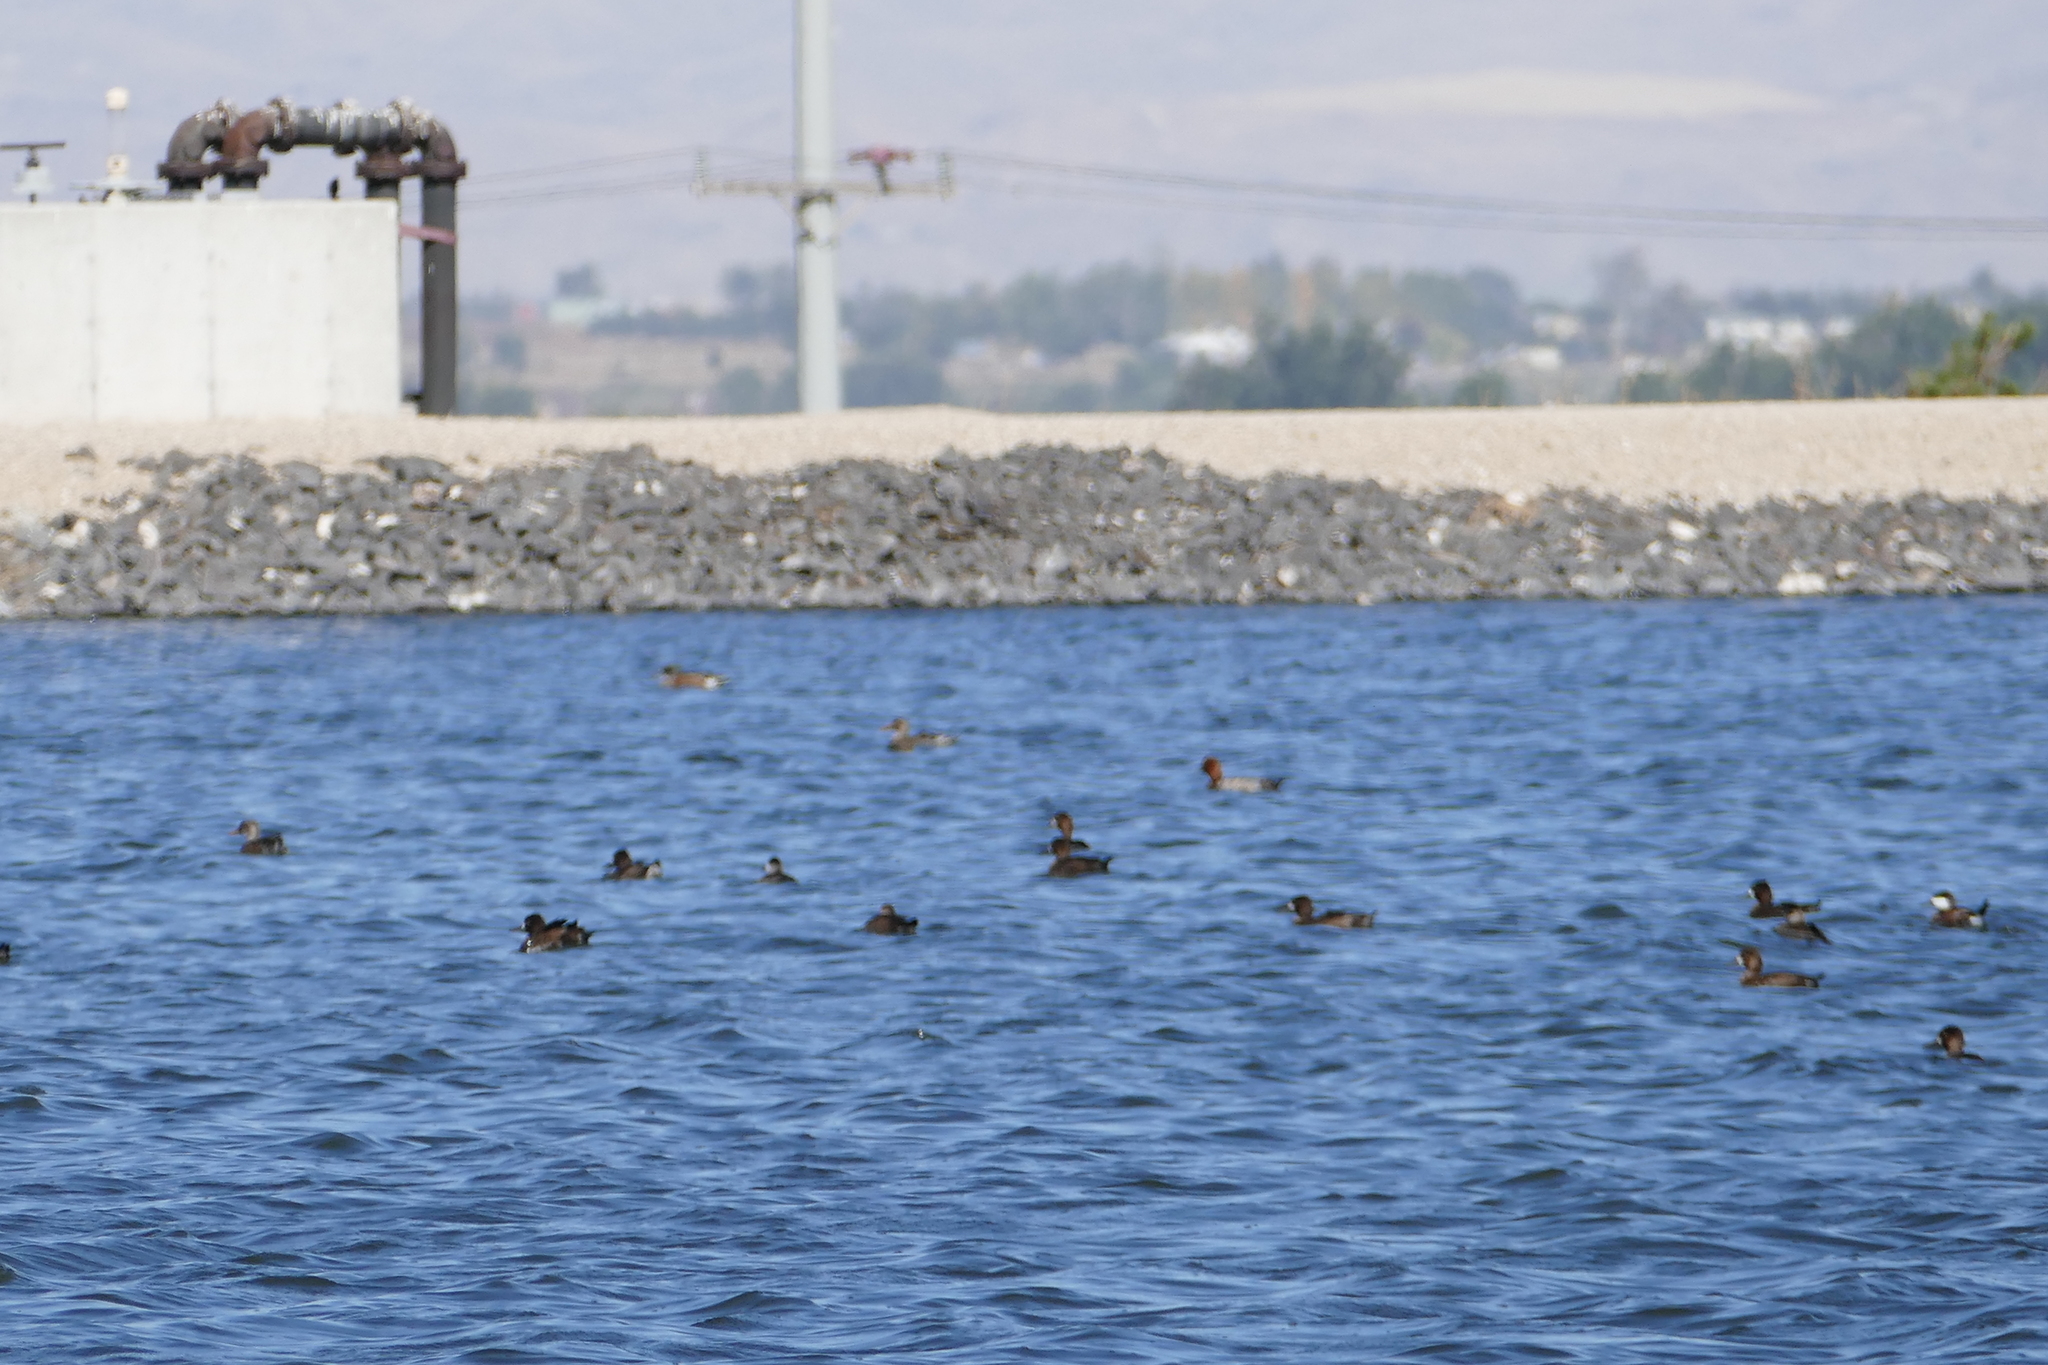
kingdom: Animalia
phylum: Chordata
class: Aves
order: Anseriformes
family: Anatidae
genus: Aythya
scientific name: Aythya americana
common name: Redhead
